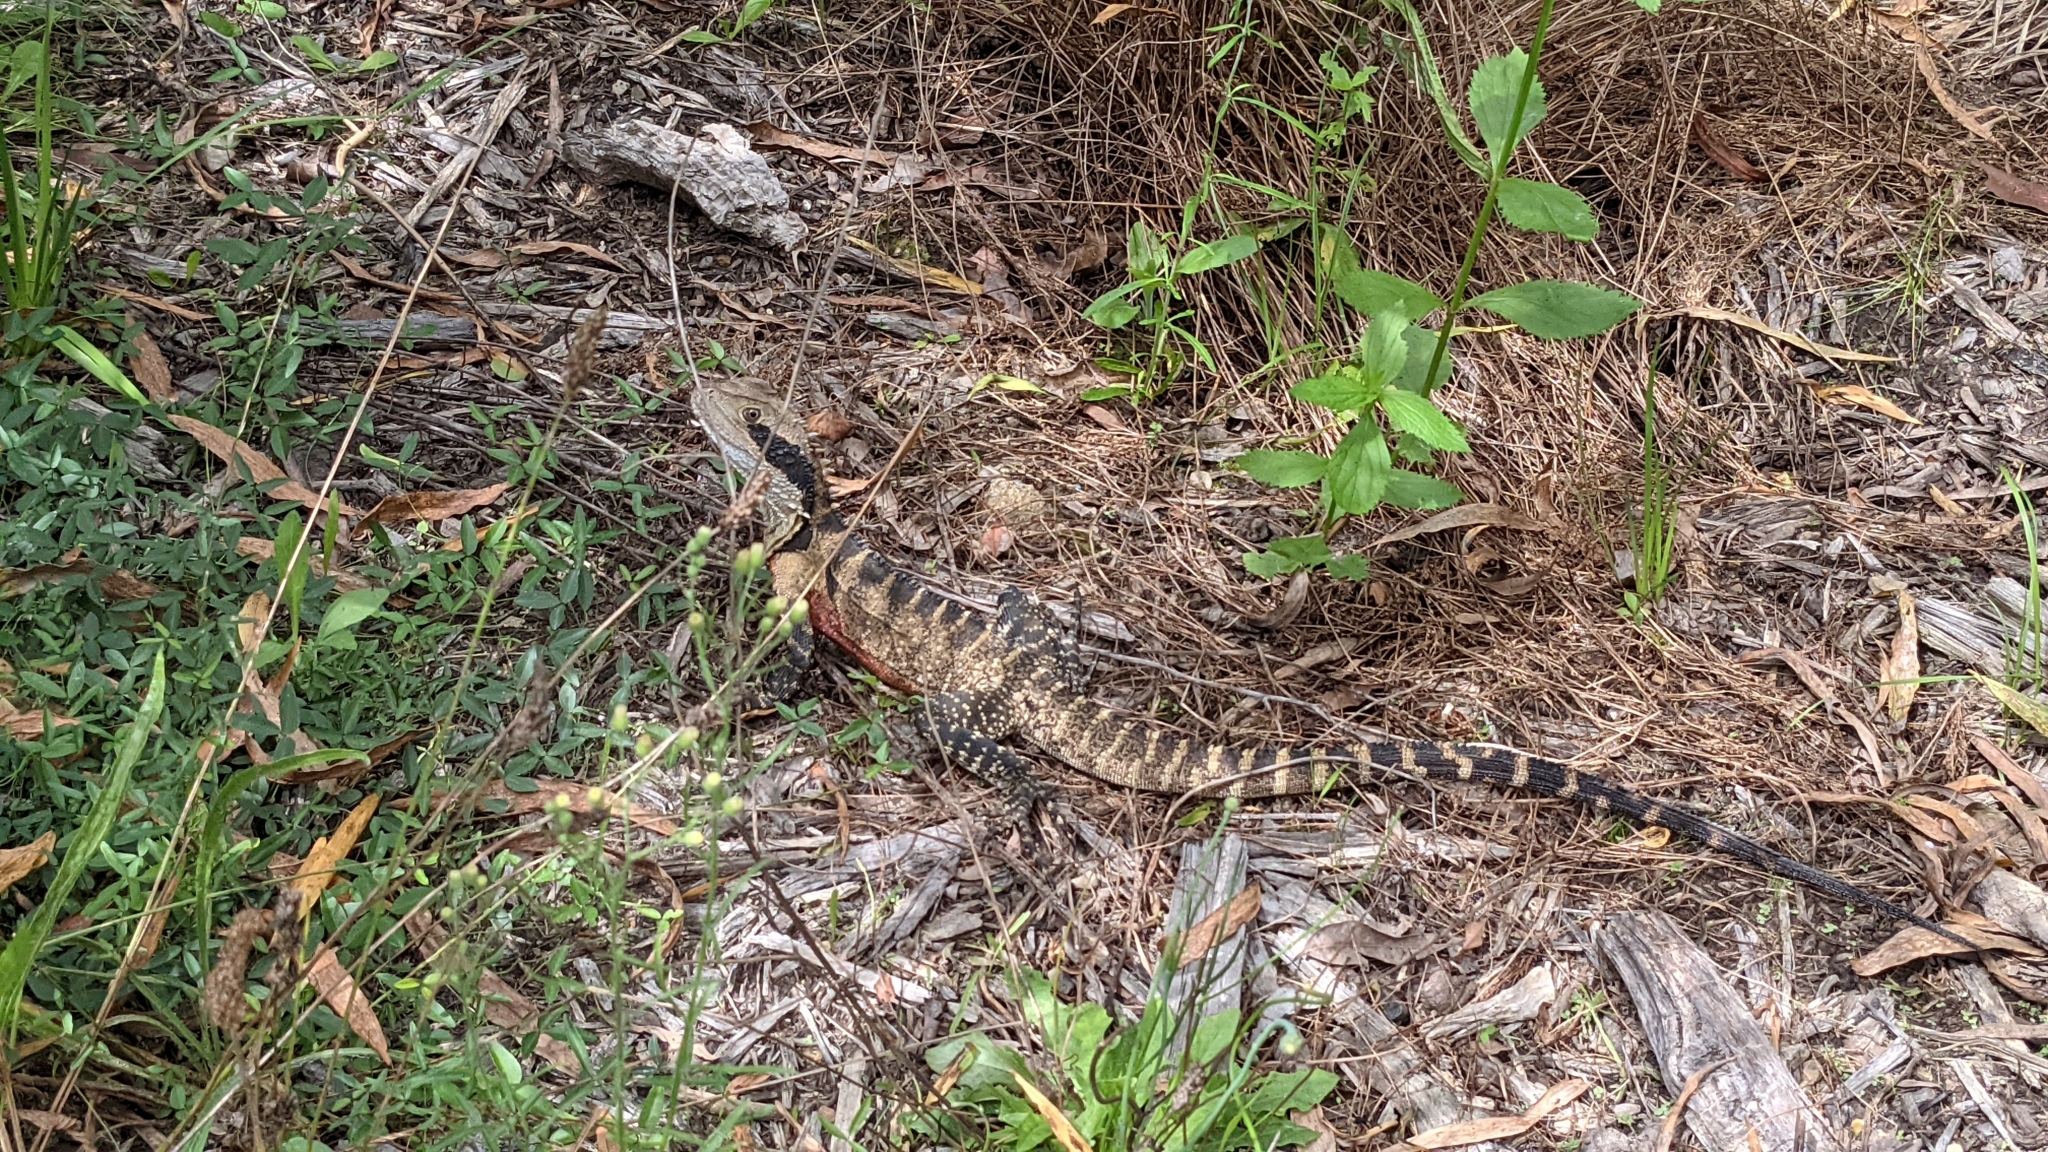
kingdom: Animalia
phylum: Chordata
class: Squamata
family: Agamidae
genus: Intellagama
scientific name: Intellagama lesueurii
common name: Eastern water dragon
